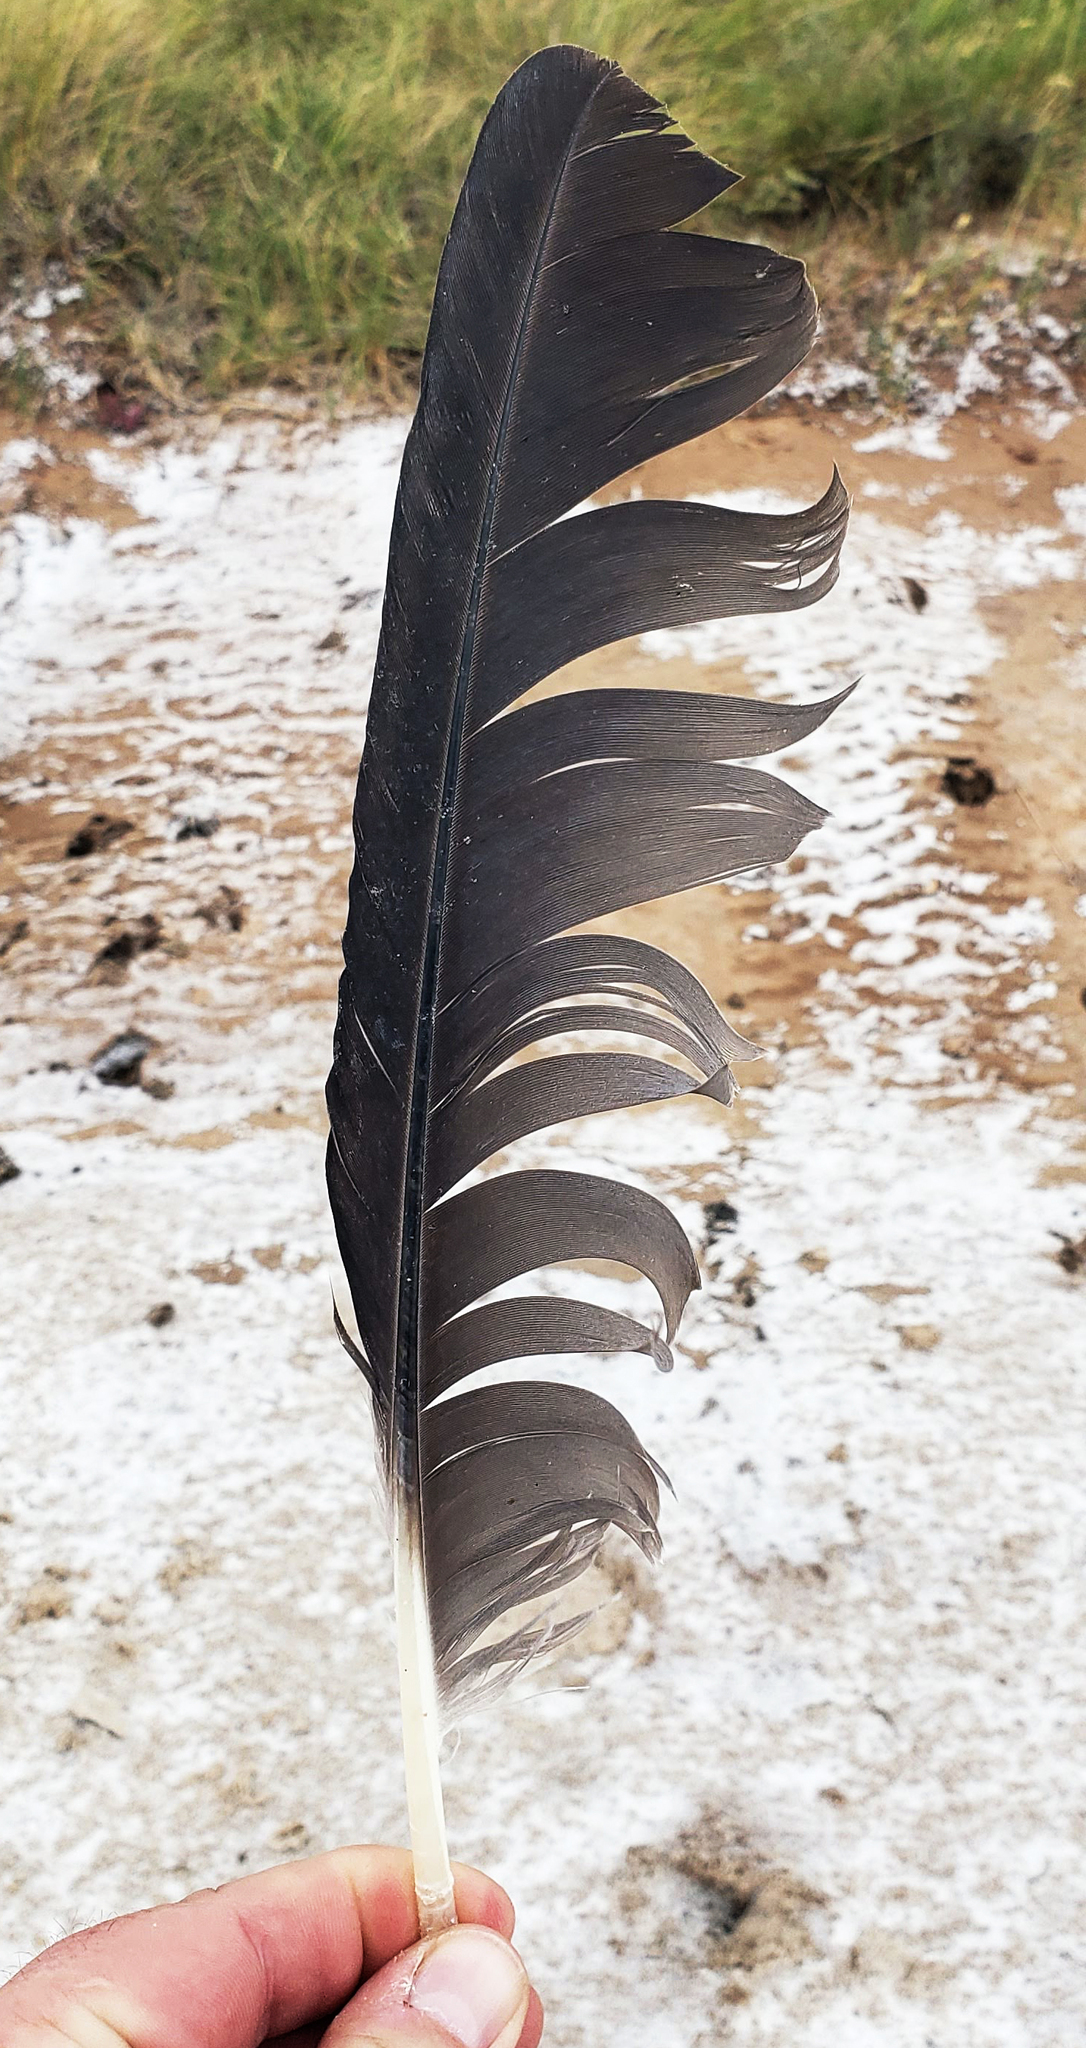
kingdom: Animalia
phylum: Chordata
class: Aves
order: Pelecaniformes
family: Ardeidae
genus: Ardea
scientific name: Ardea herodias
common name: Great blue heron
